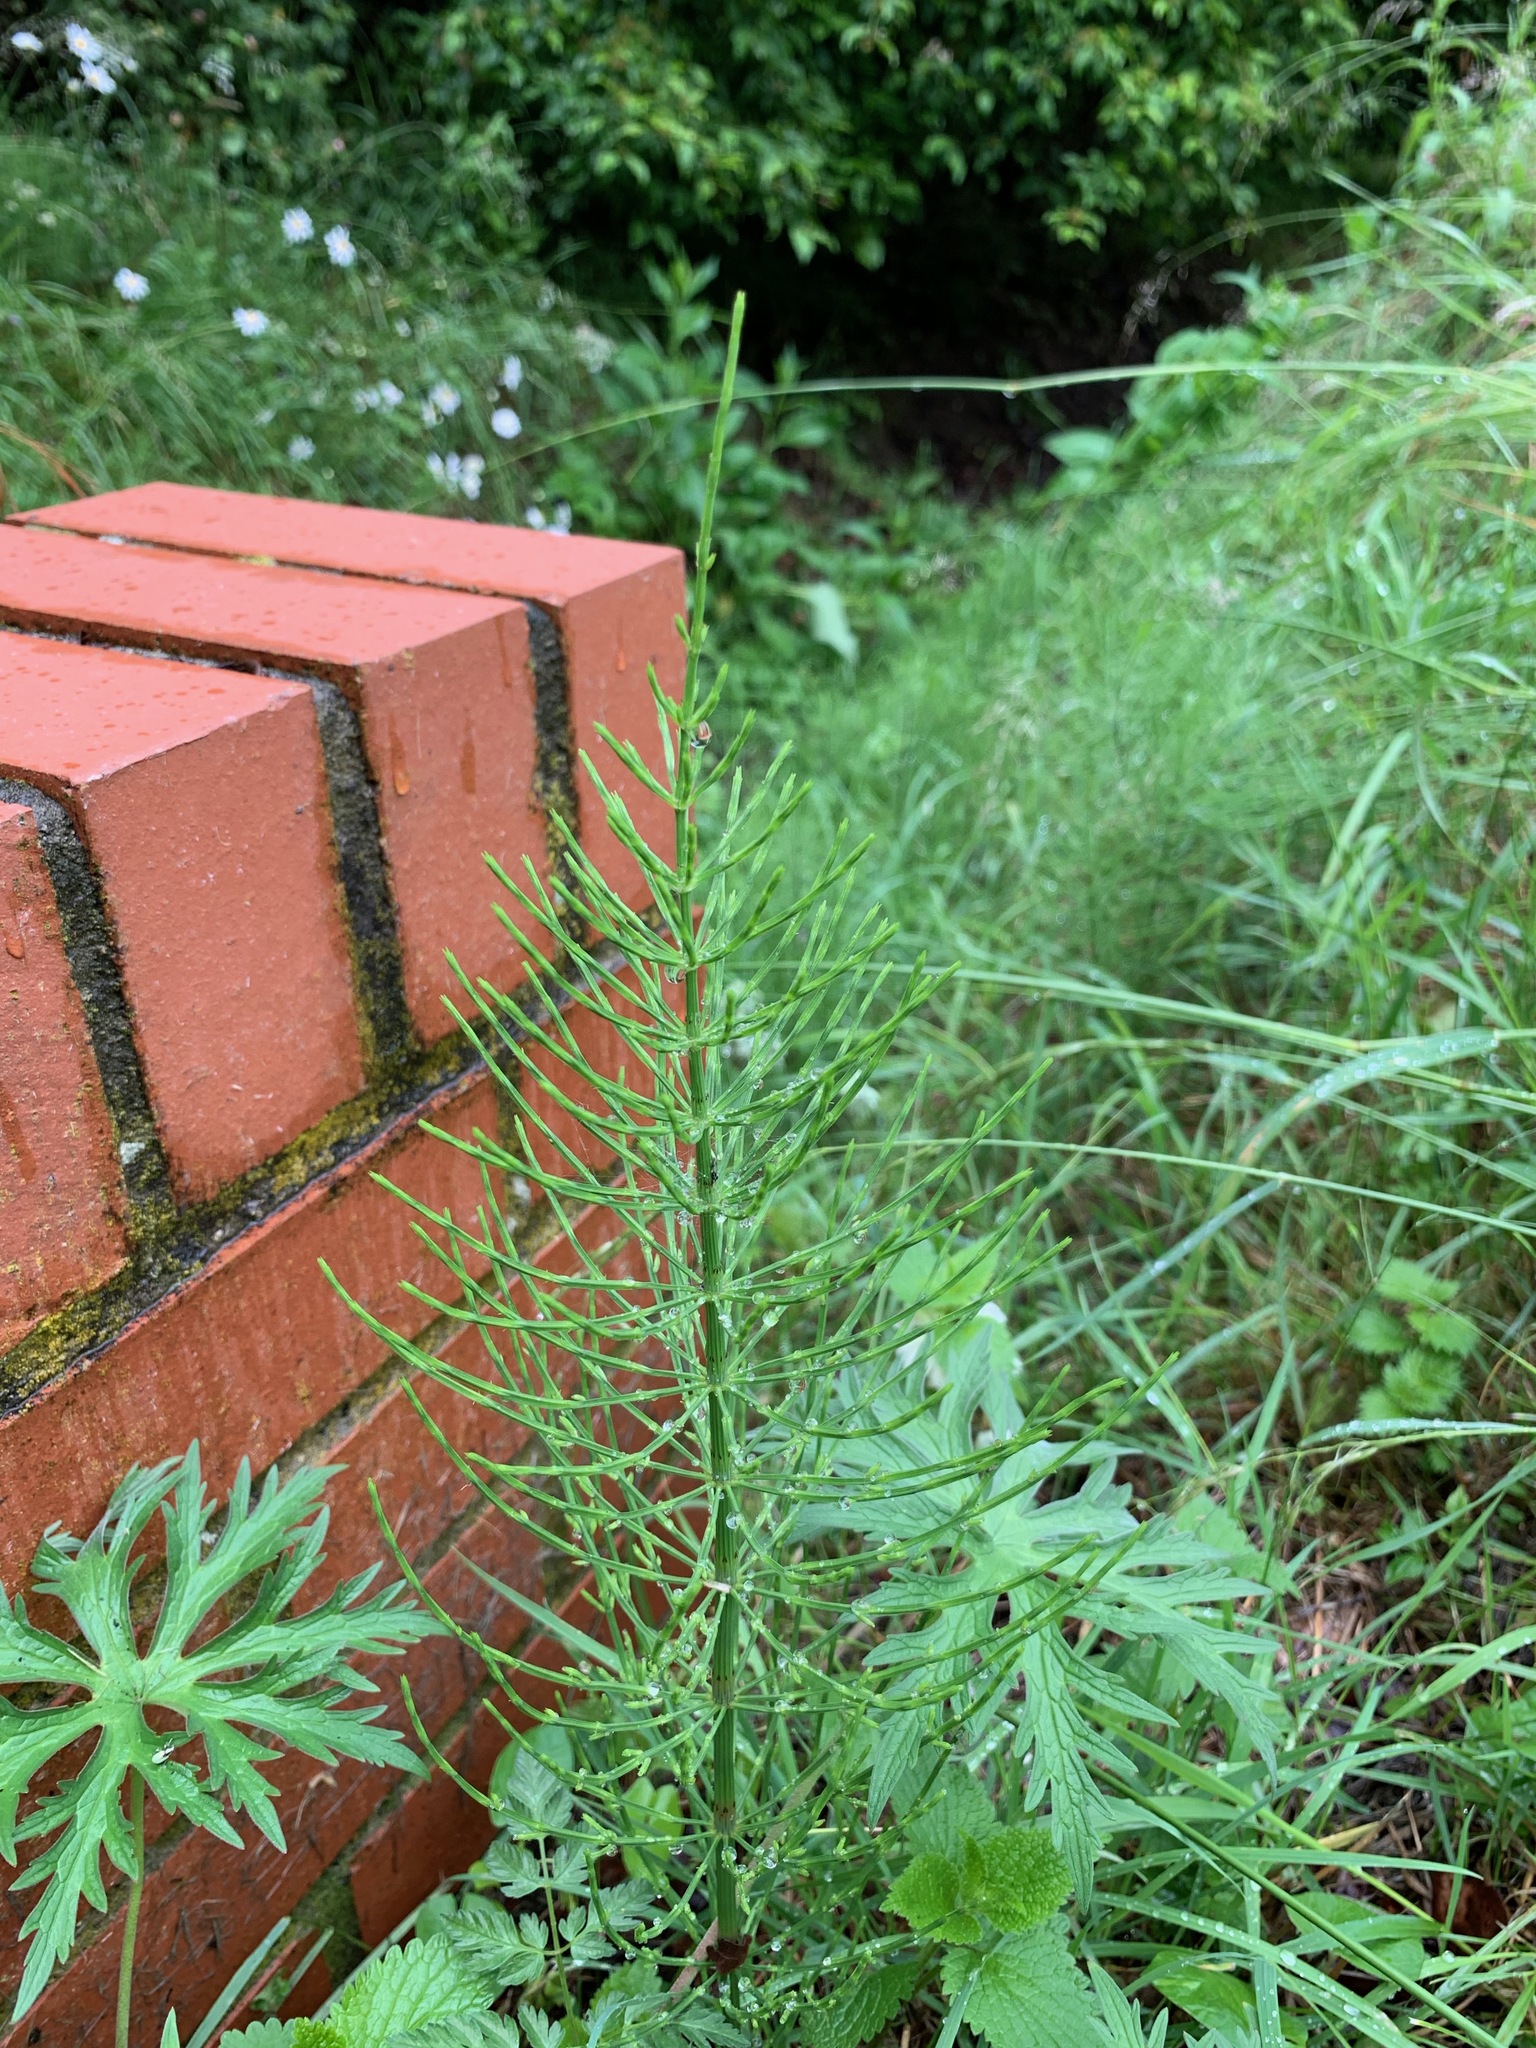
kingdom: Plantae
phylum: Tracheophyta
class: Polypodiopsida
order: Equisetales
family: Equisetaceae
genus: Equisetum
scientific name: Equisetum arvense
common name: Field horsetail
